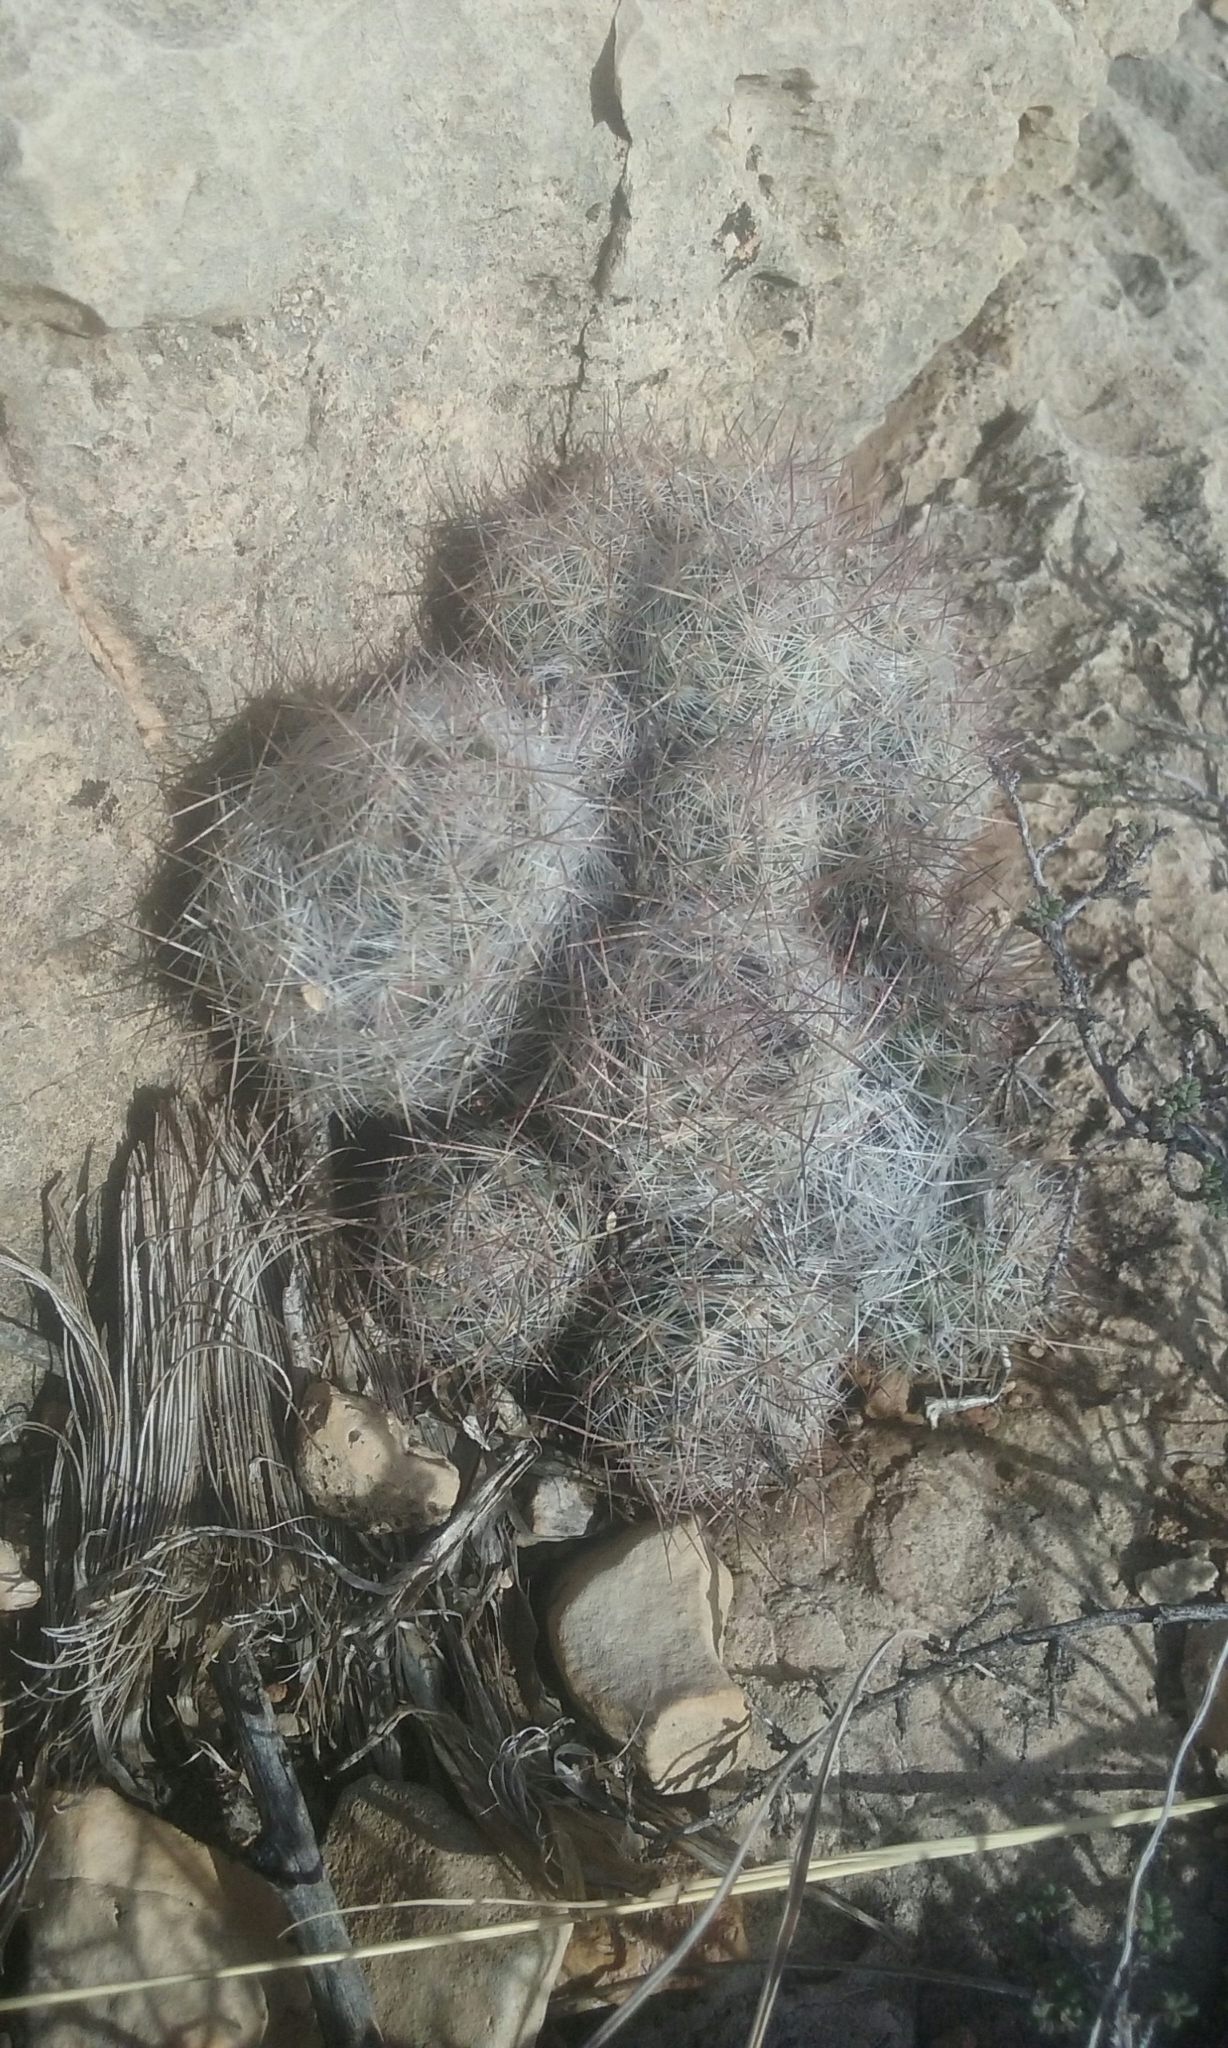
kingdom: Plantae
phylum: Tracheophyta
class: Magnoliopsida
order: Caryophyllales
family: Cactaceae
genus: Pelecyphora
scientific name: Pelecyphora tuberculosa
